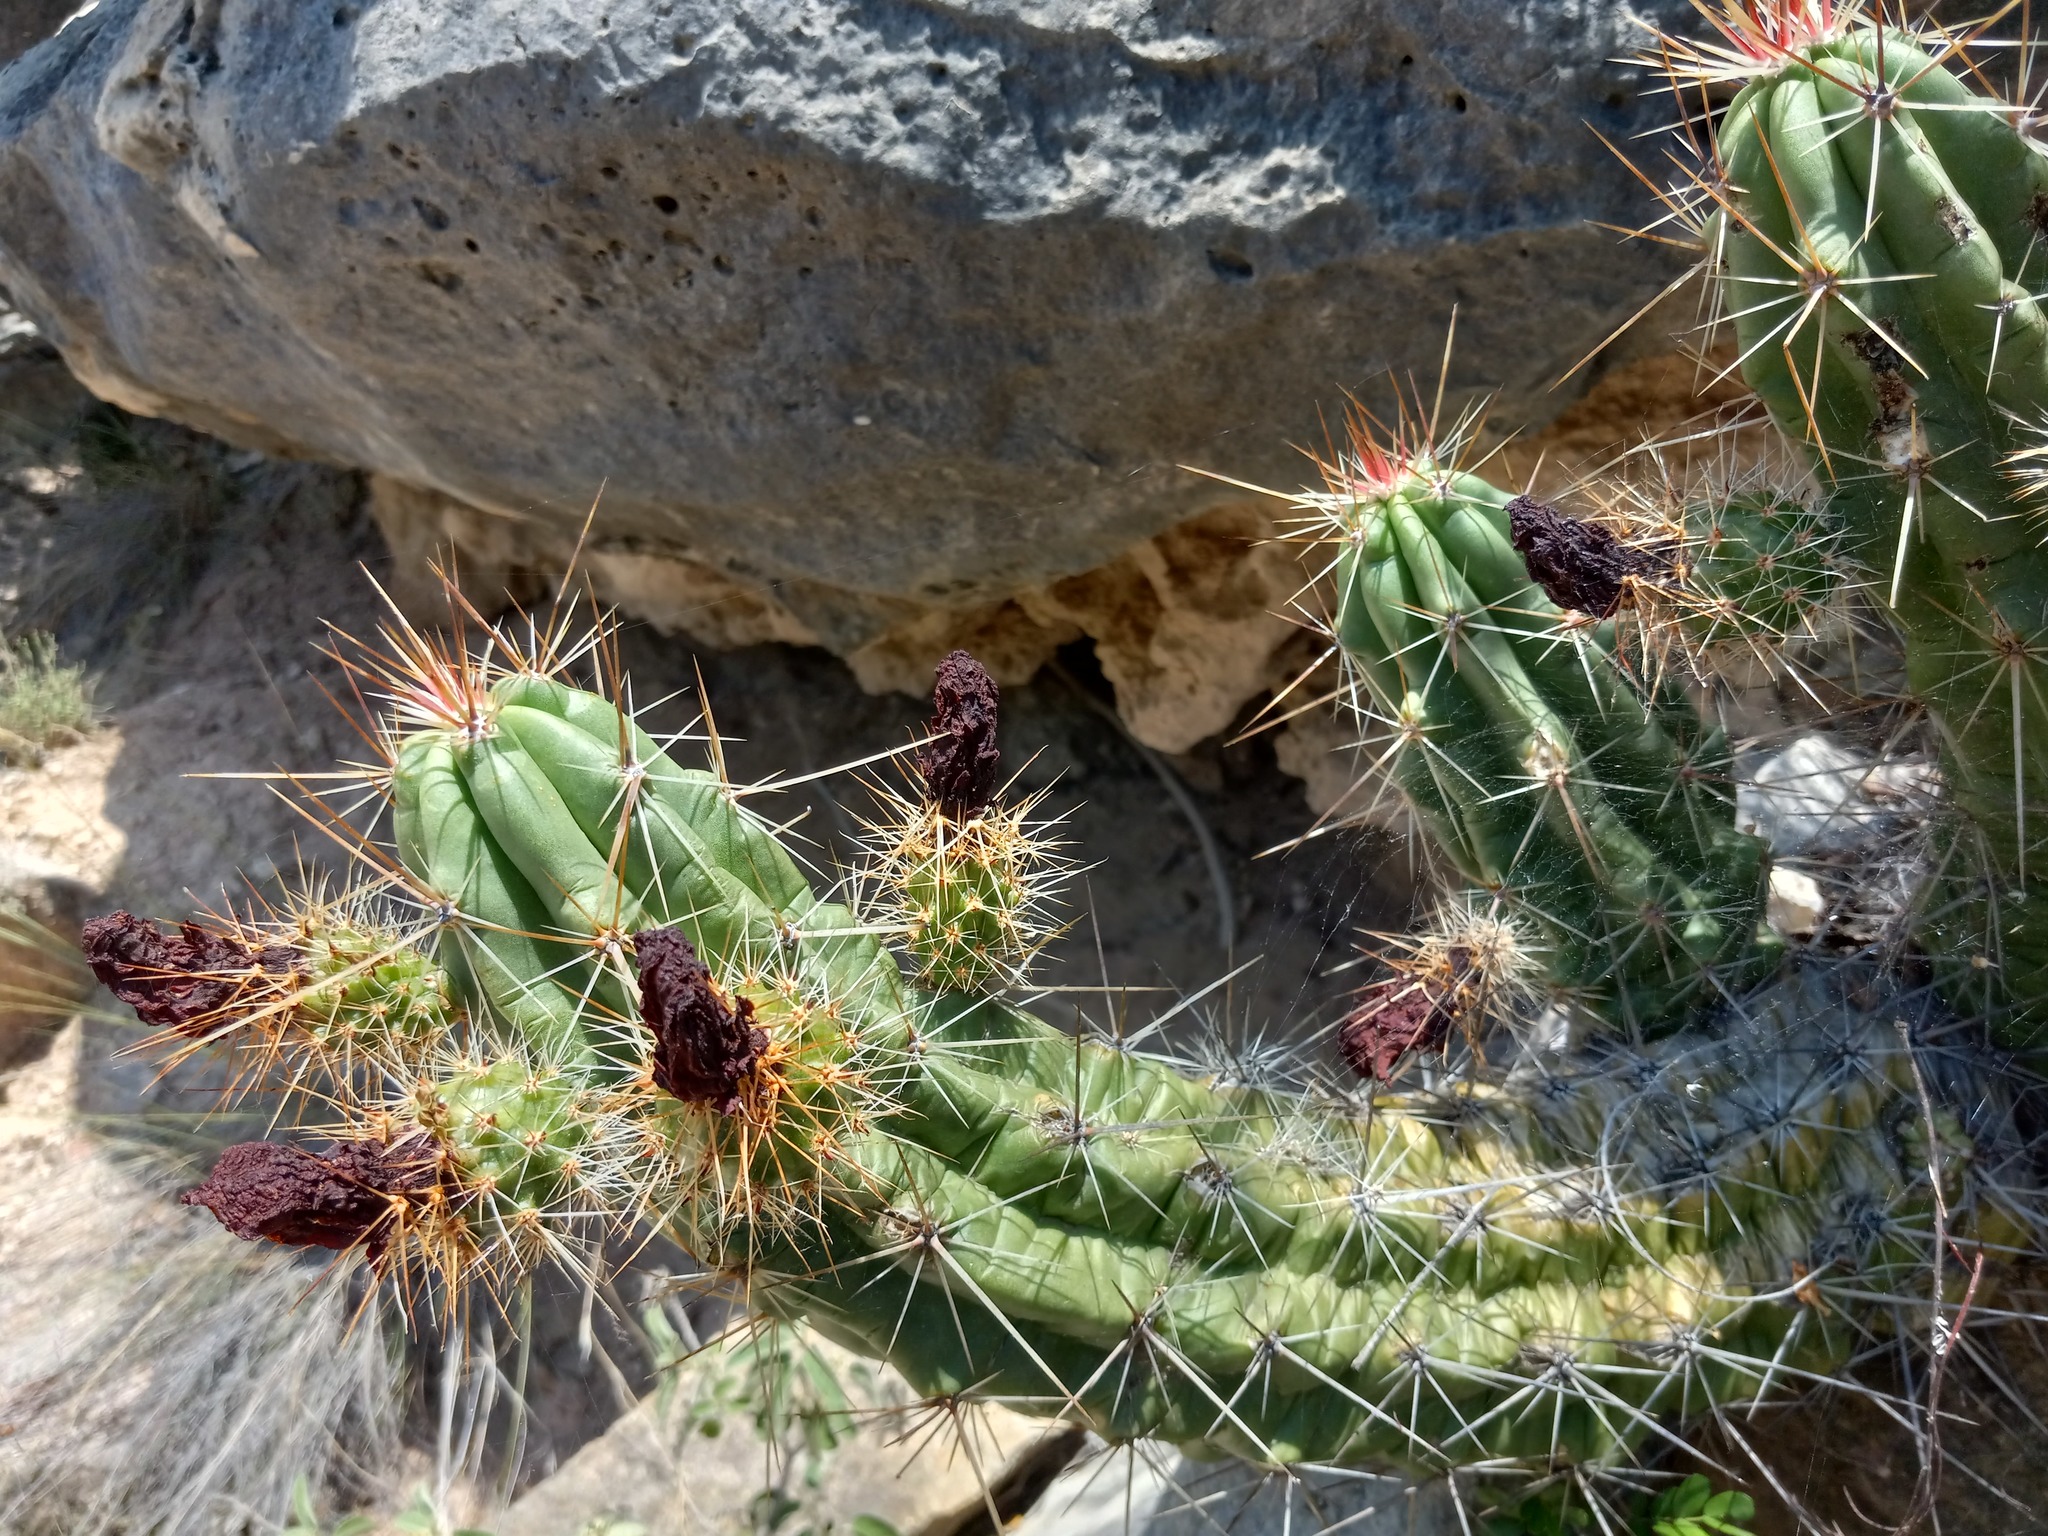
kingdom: Plantae
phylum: Tracheophyta
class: Magnoliopsida
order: Caryophyllales
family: Cactaceae
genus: Echinocereus
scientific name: Echinocereus enneacanthus
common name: Pitaya
